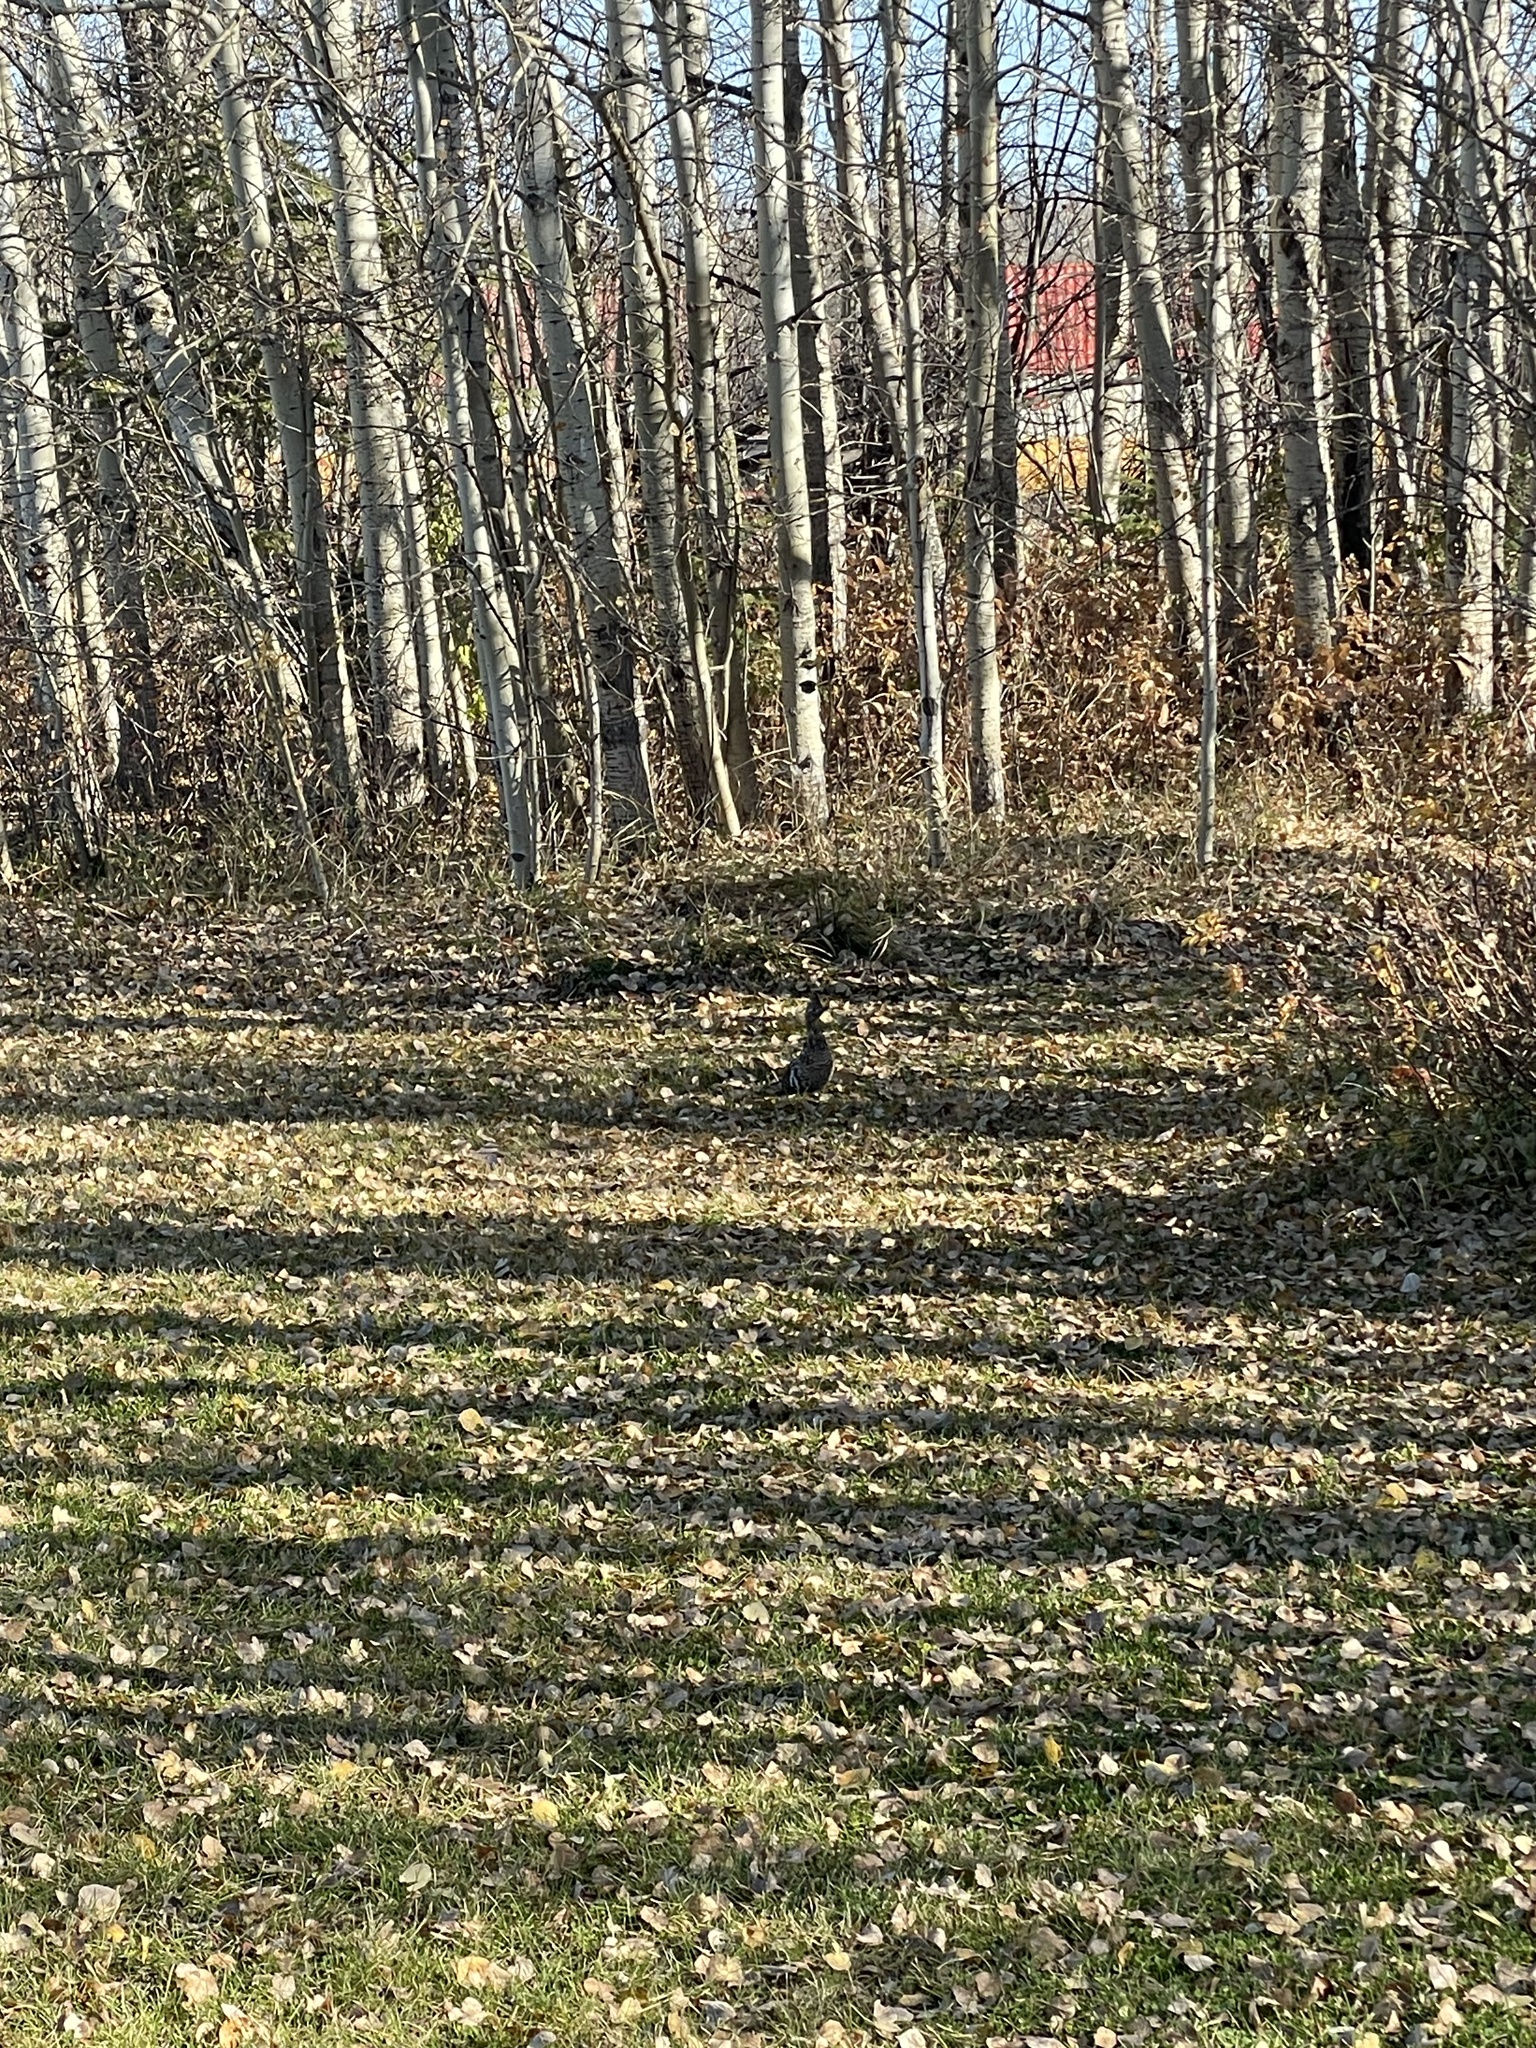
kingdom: Animalia
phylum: Chordata
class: Aves
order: Galliformes
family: Phasianidae
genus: Bonasa
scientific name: Bonasa umbellus
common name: Ruffed grouse
